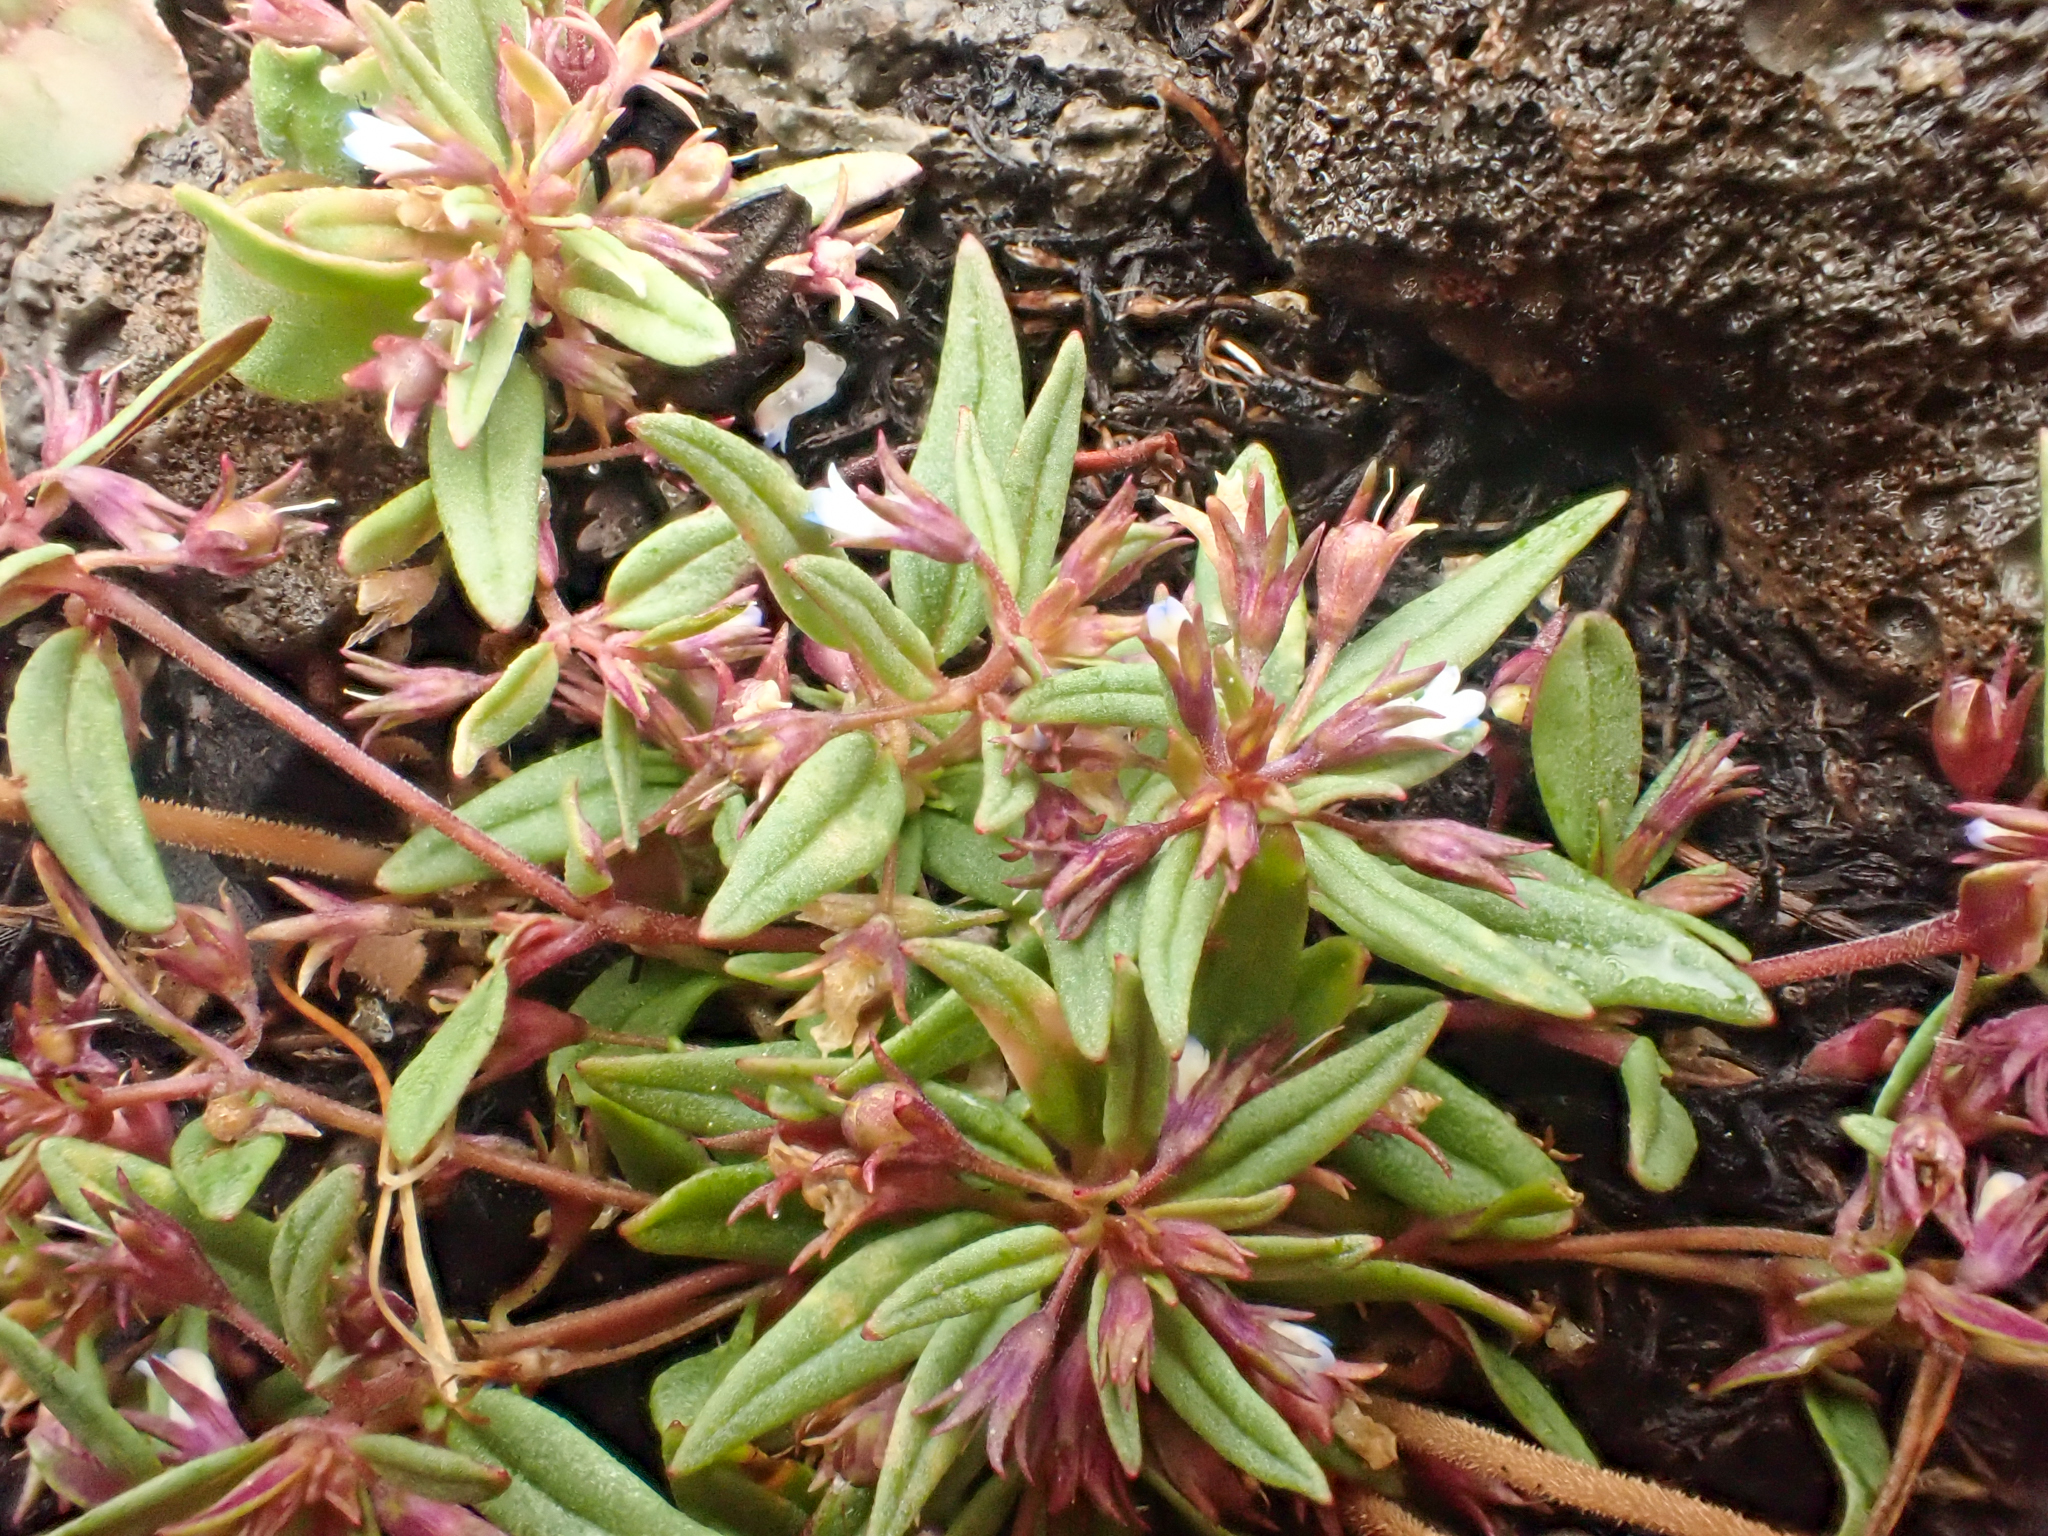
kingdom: Plantae
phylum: Tracheophyta
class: Magnoliopsida
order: Lamiales
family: Plantaginaceae
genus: Collinsia
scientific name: Collinsia parviflora
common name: Blue-lips
